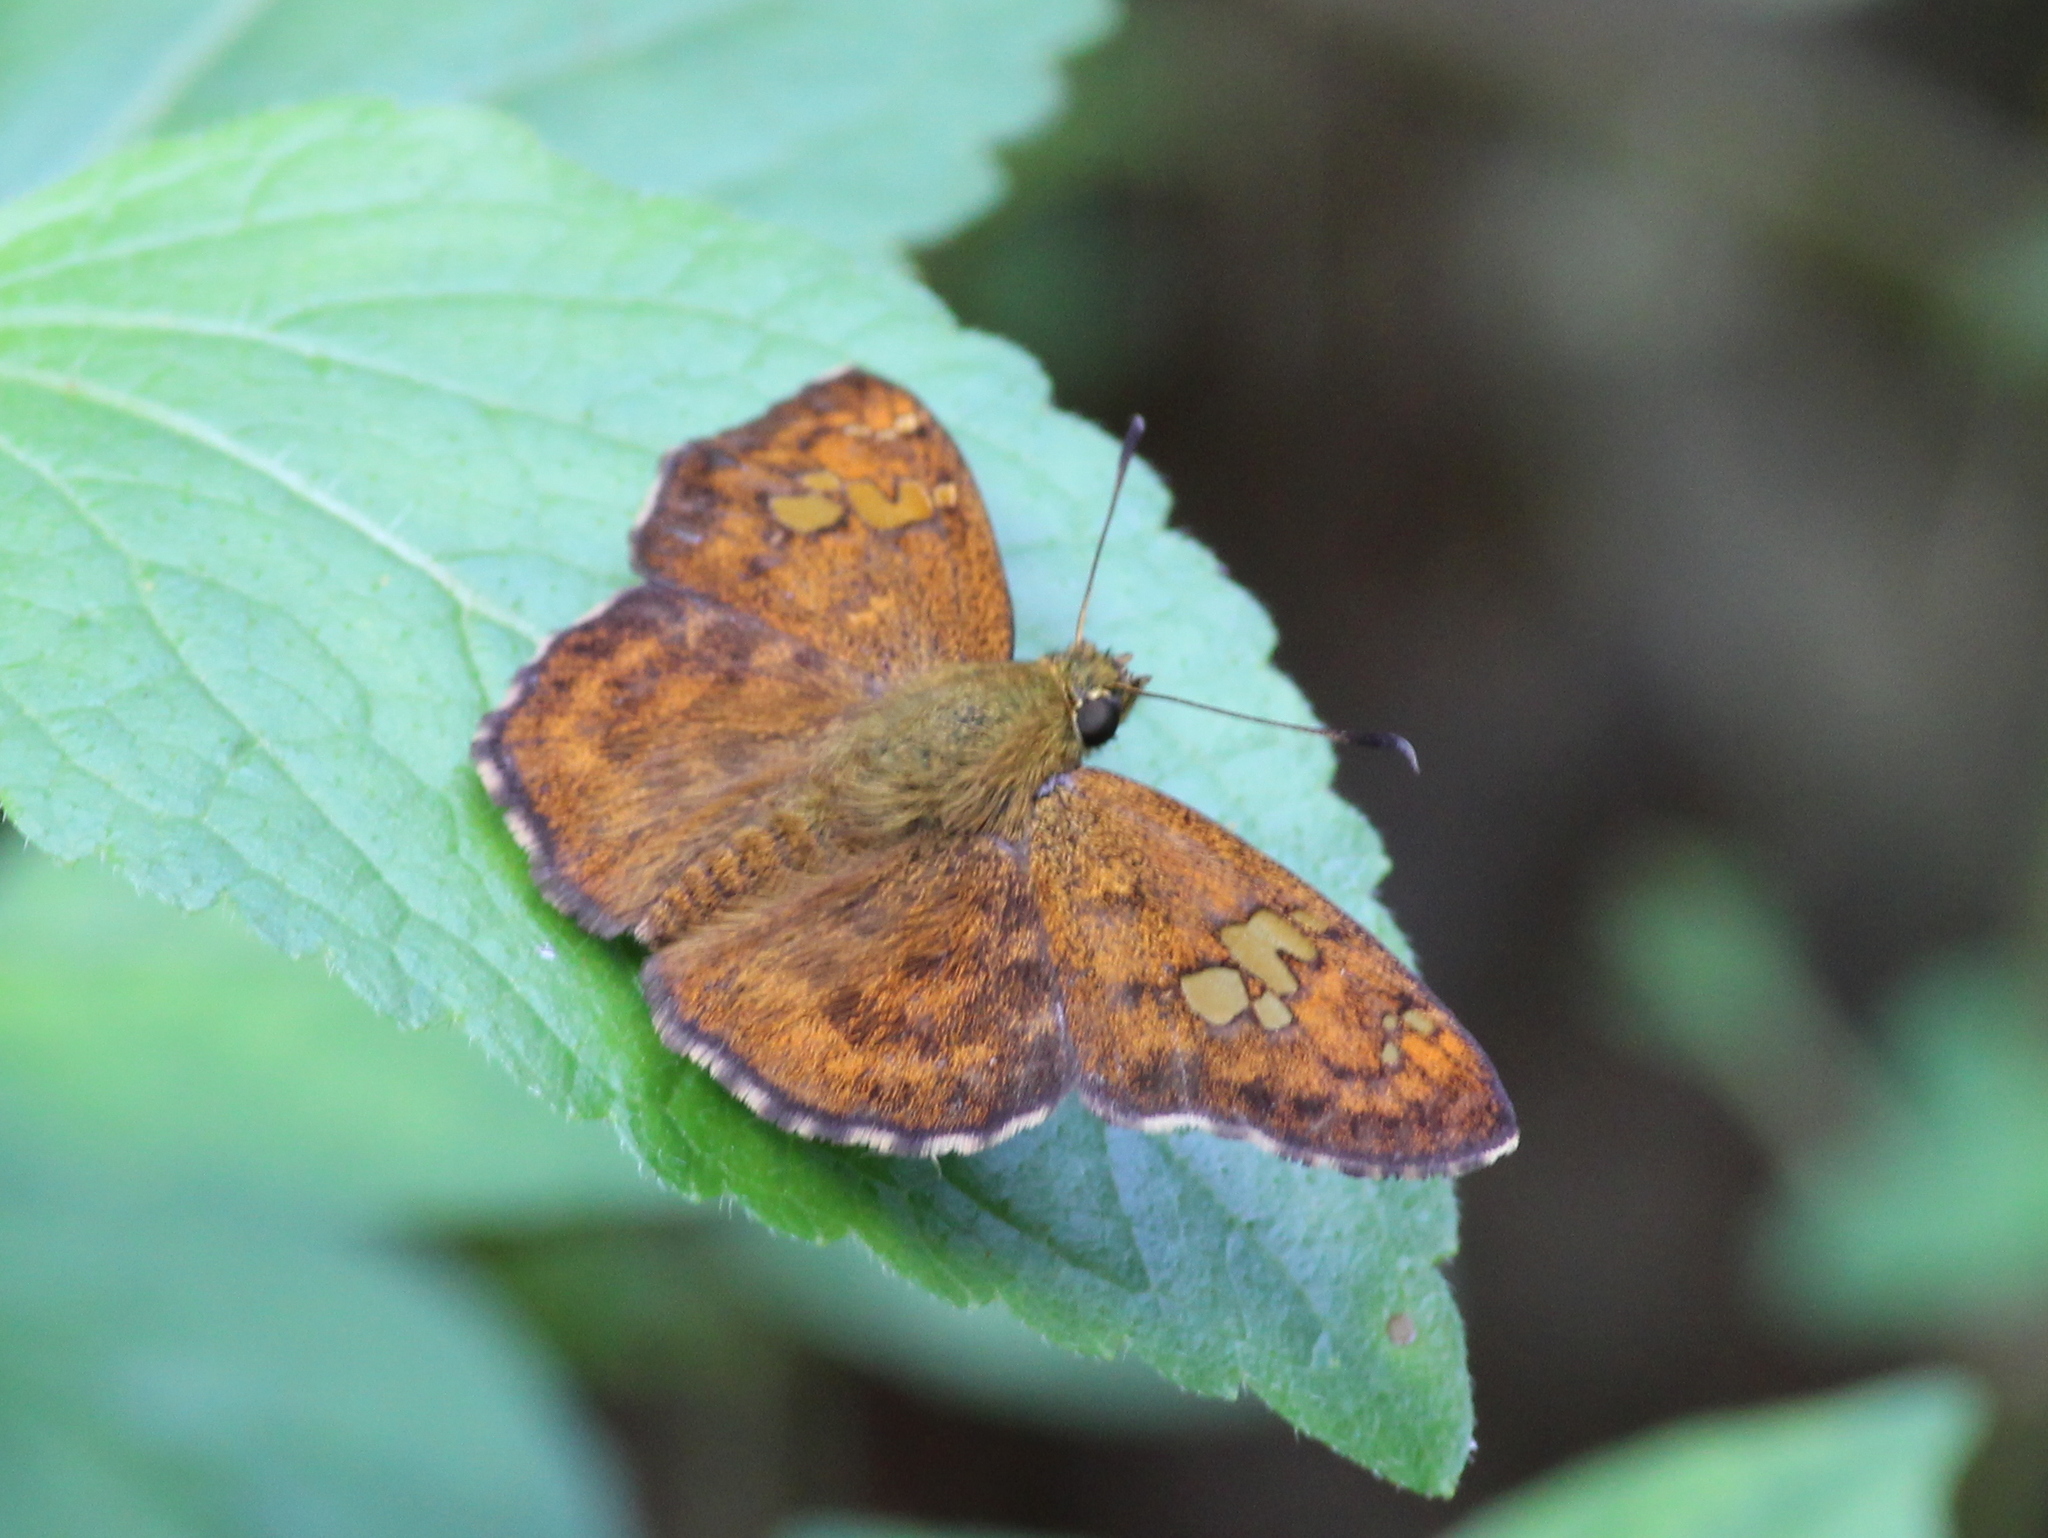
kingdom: Animalia
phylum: Arthropoda
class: Insecta
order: Lepidoptera
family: Hesperiidae
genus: Pseudocoladenia
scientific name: Pseudocoladenia dan
